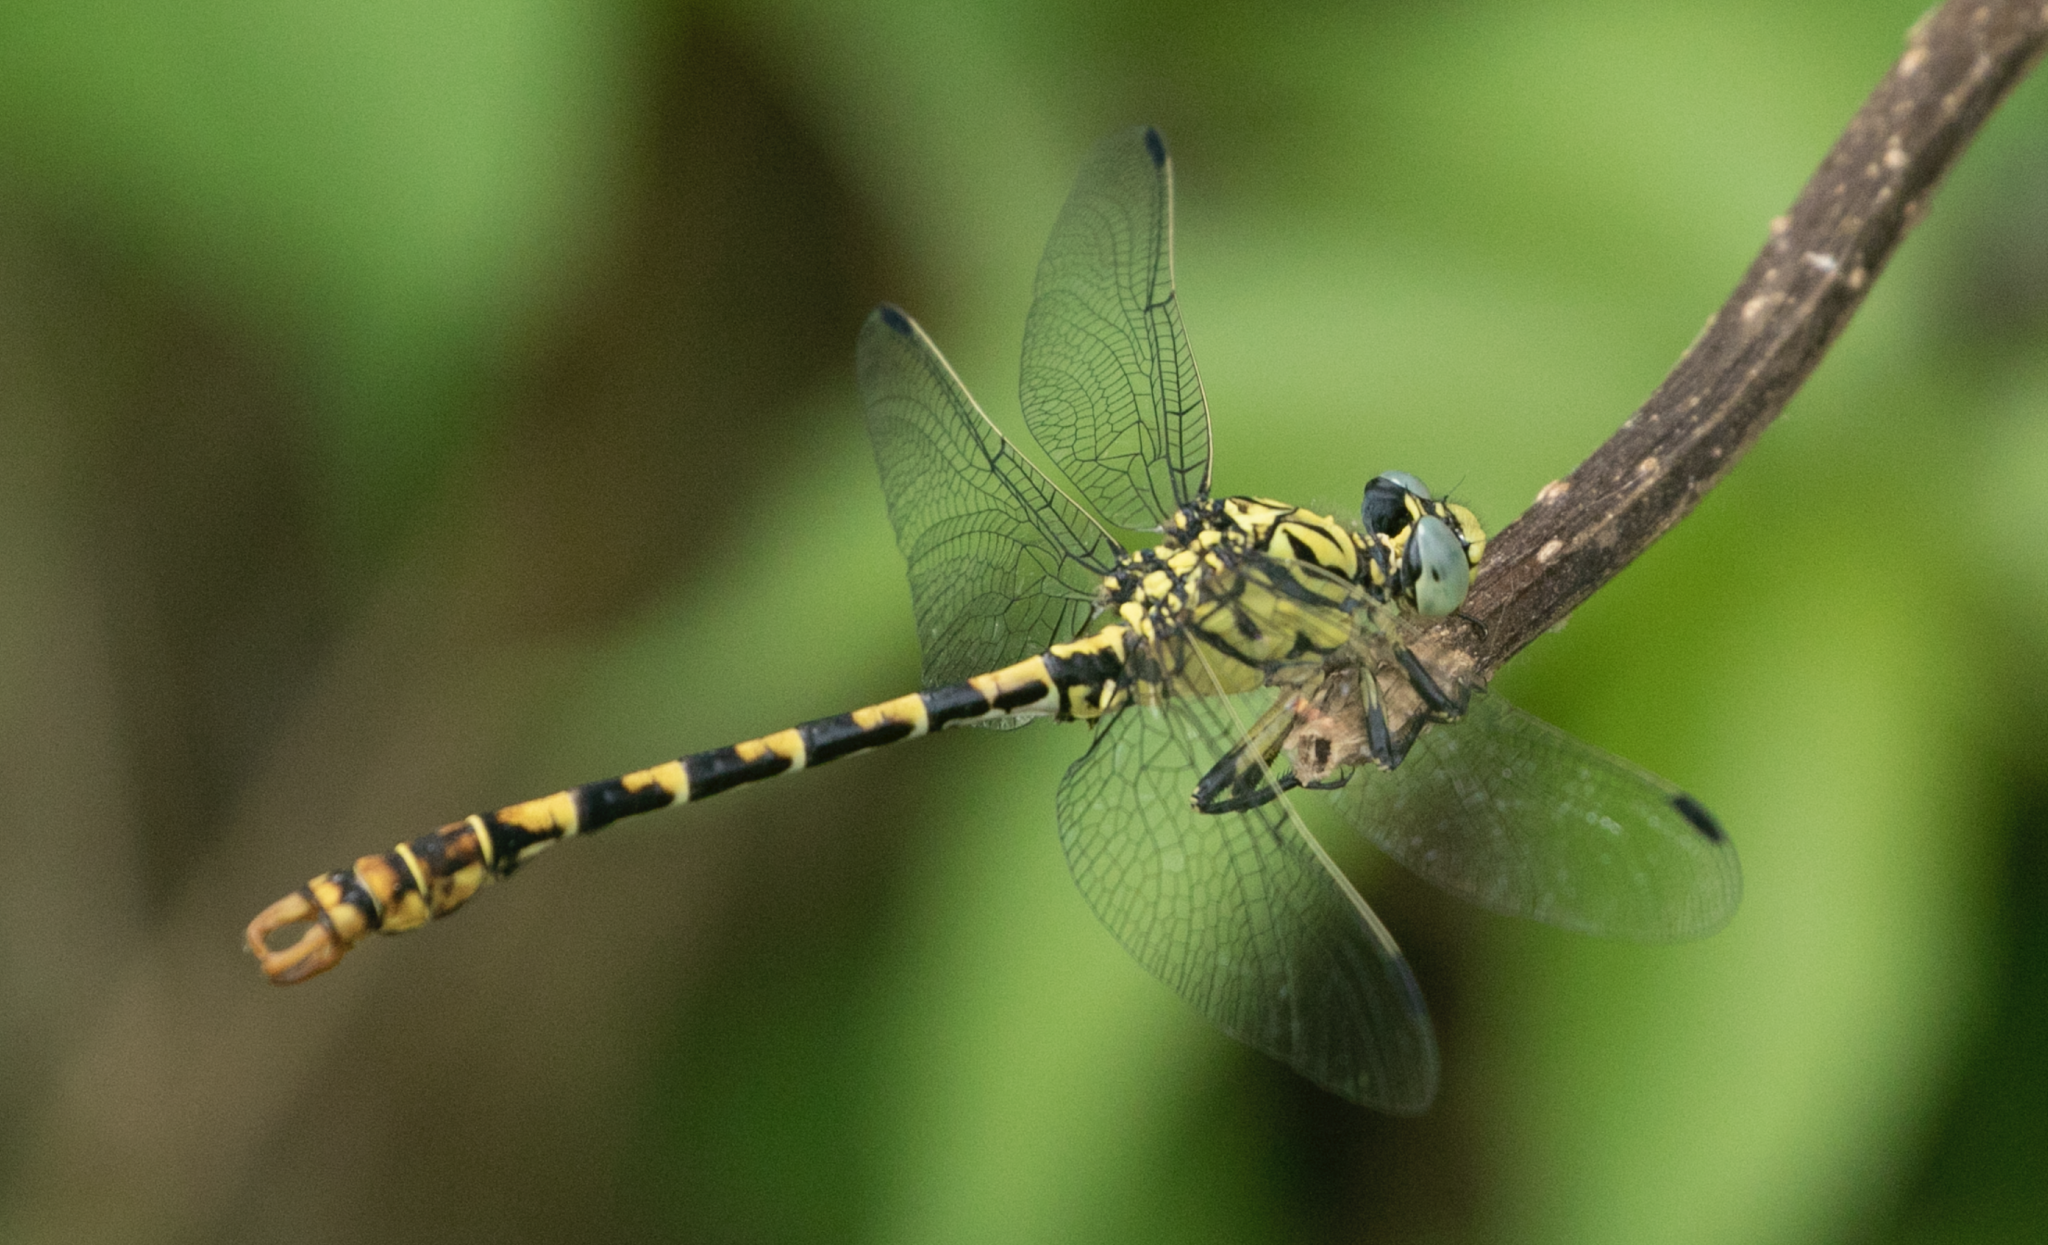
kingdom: Animalia
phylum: Arthropoda
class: Insecta
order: Odonata
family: Gomphidae
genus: Onychogomphus
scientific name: Onychogomphus forcipatus
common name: Small pincertail
